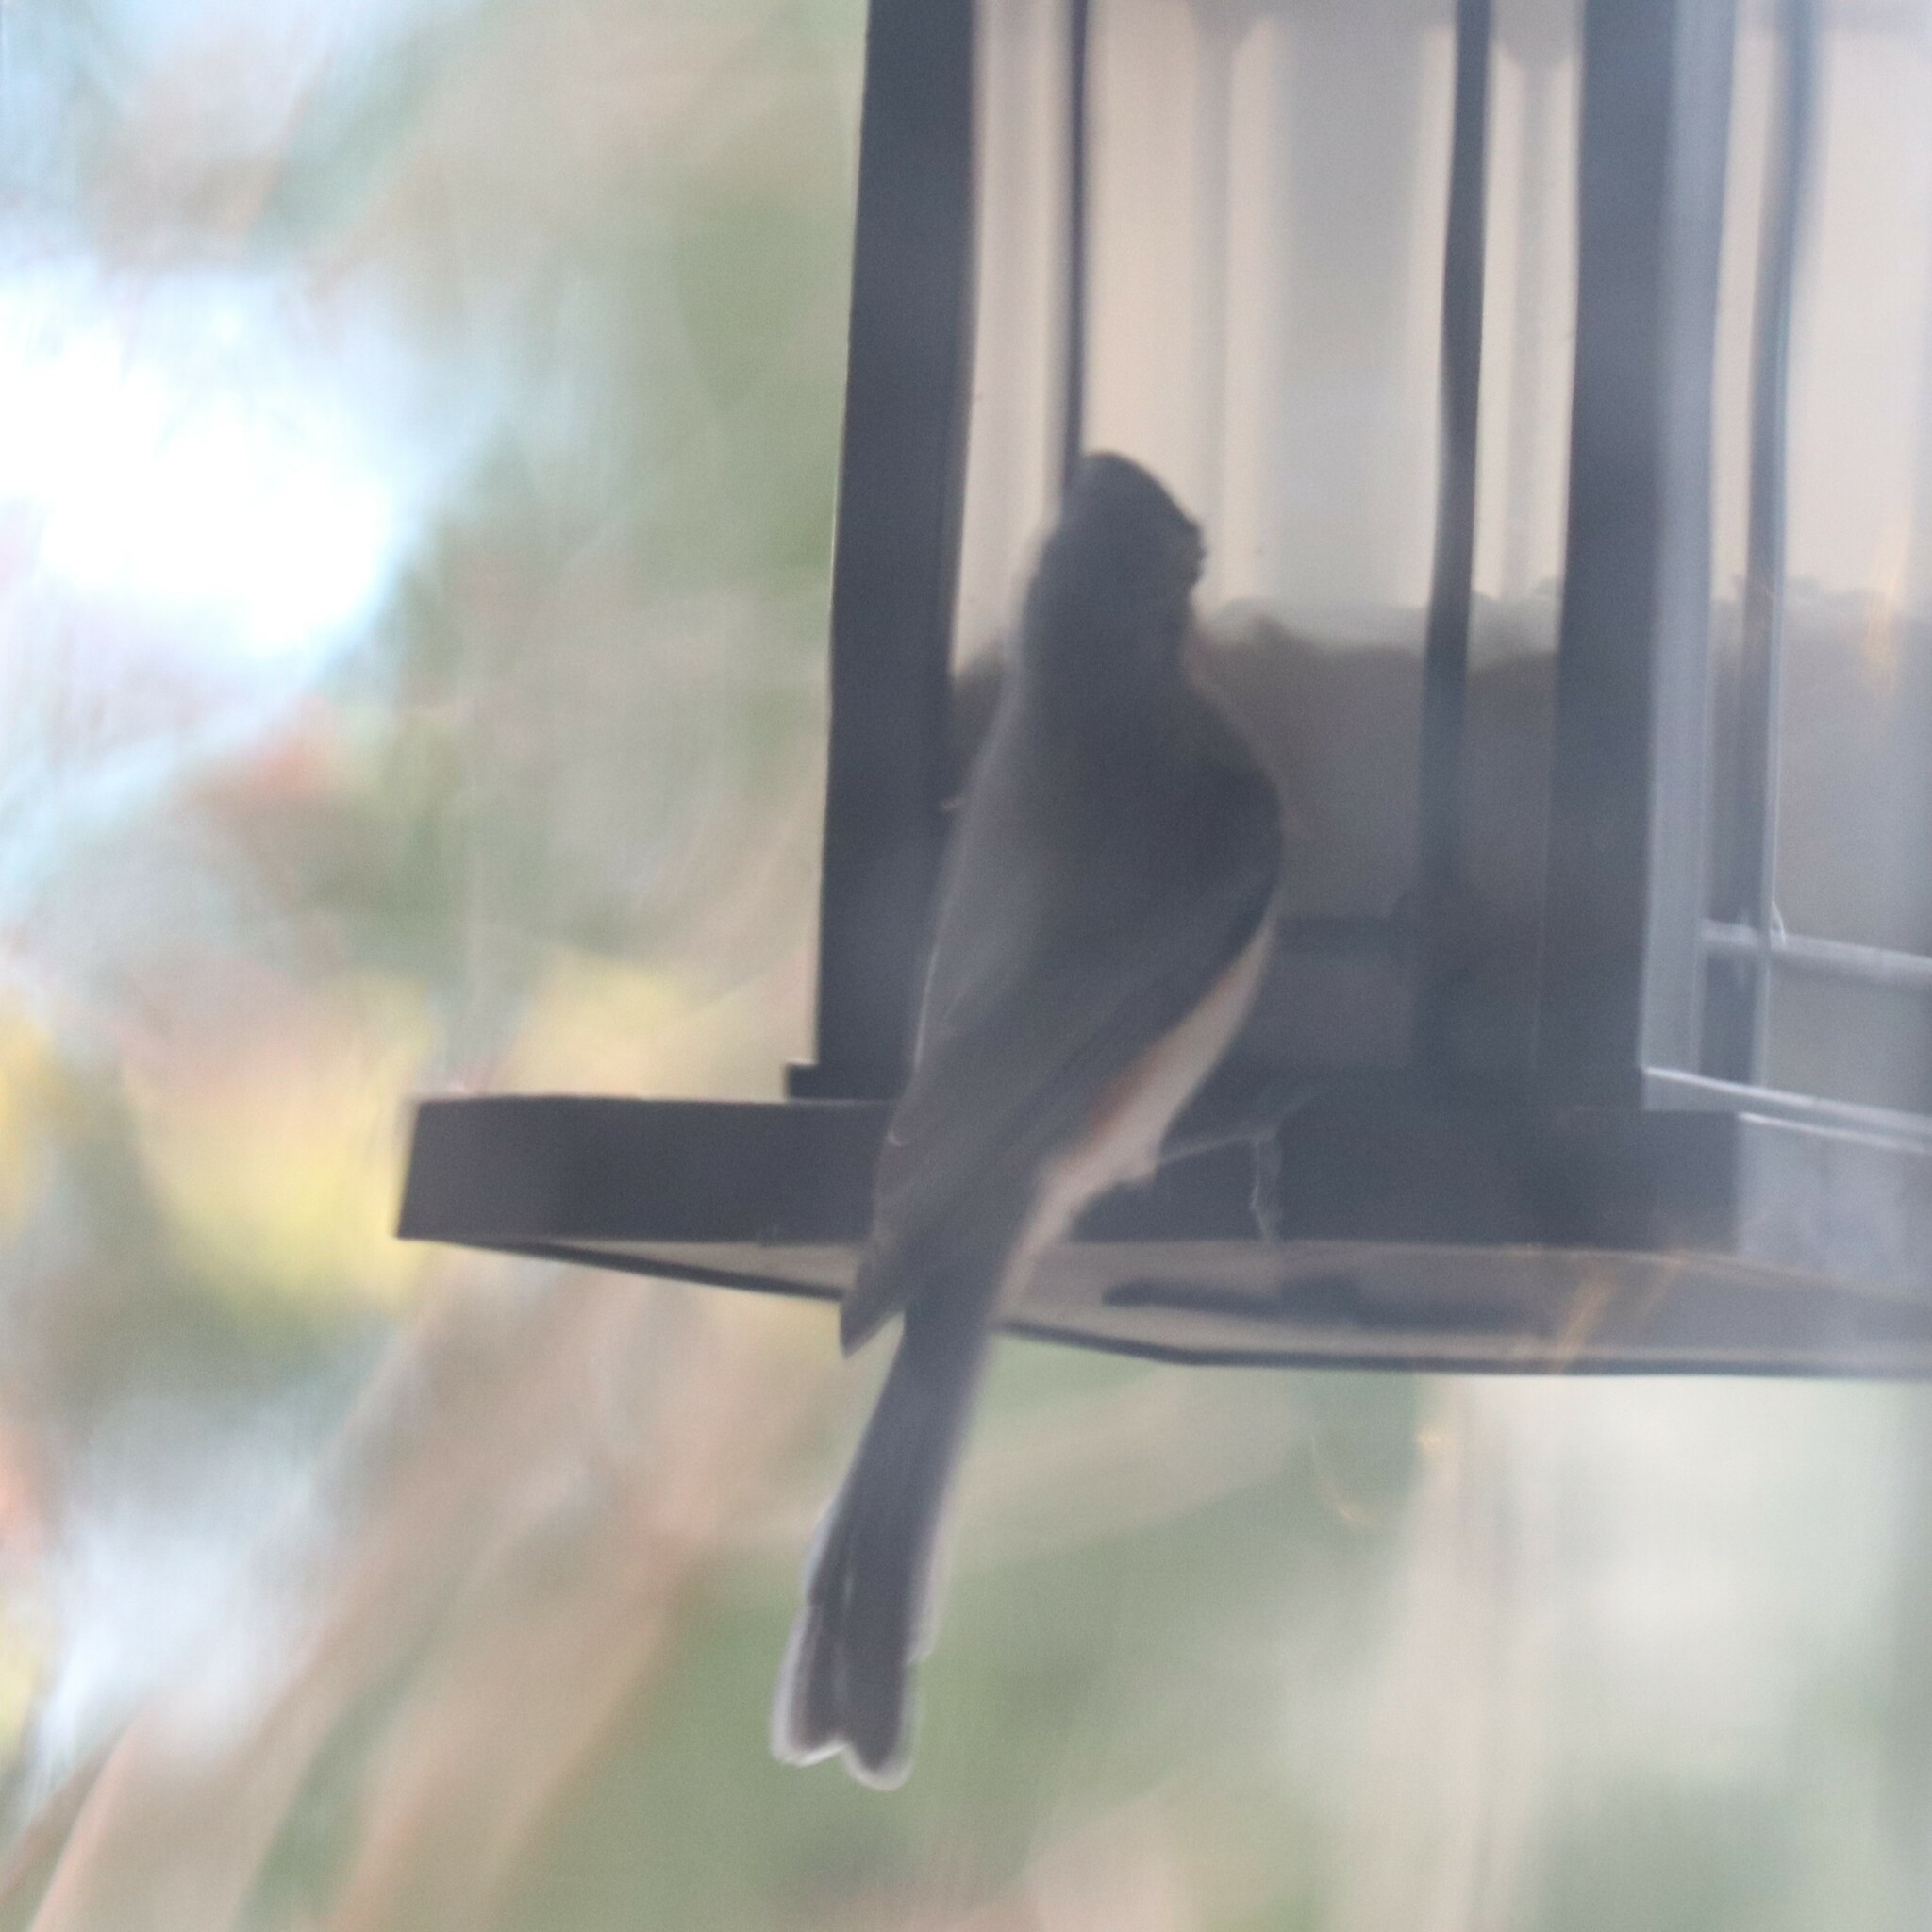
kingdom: Animalia
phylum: Chordata
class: Aves
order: Passeriformes
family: Paridae
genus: Baeolophus
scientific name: Baeolophus bicolor
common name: Tufted titmouse
